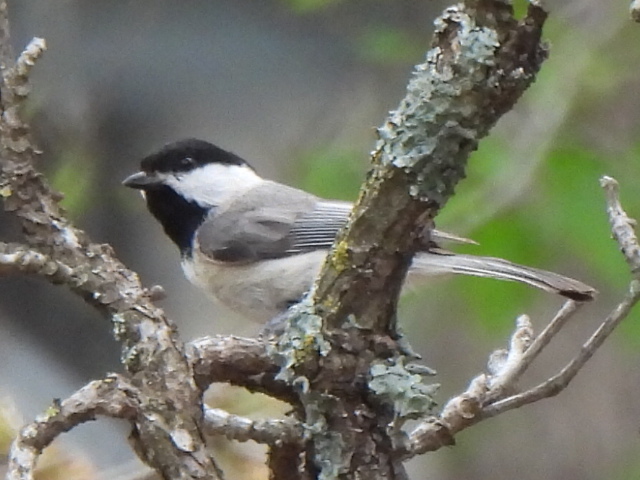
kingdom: Animalia
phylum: Chordata
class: Aves
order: Passeriformes
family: Paridae
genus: Poecile
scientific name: Poecile carolinensis
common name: Carolina chickadee
